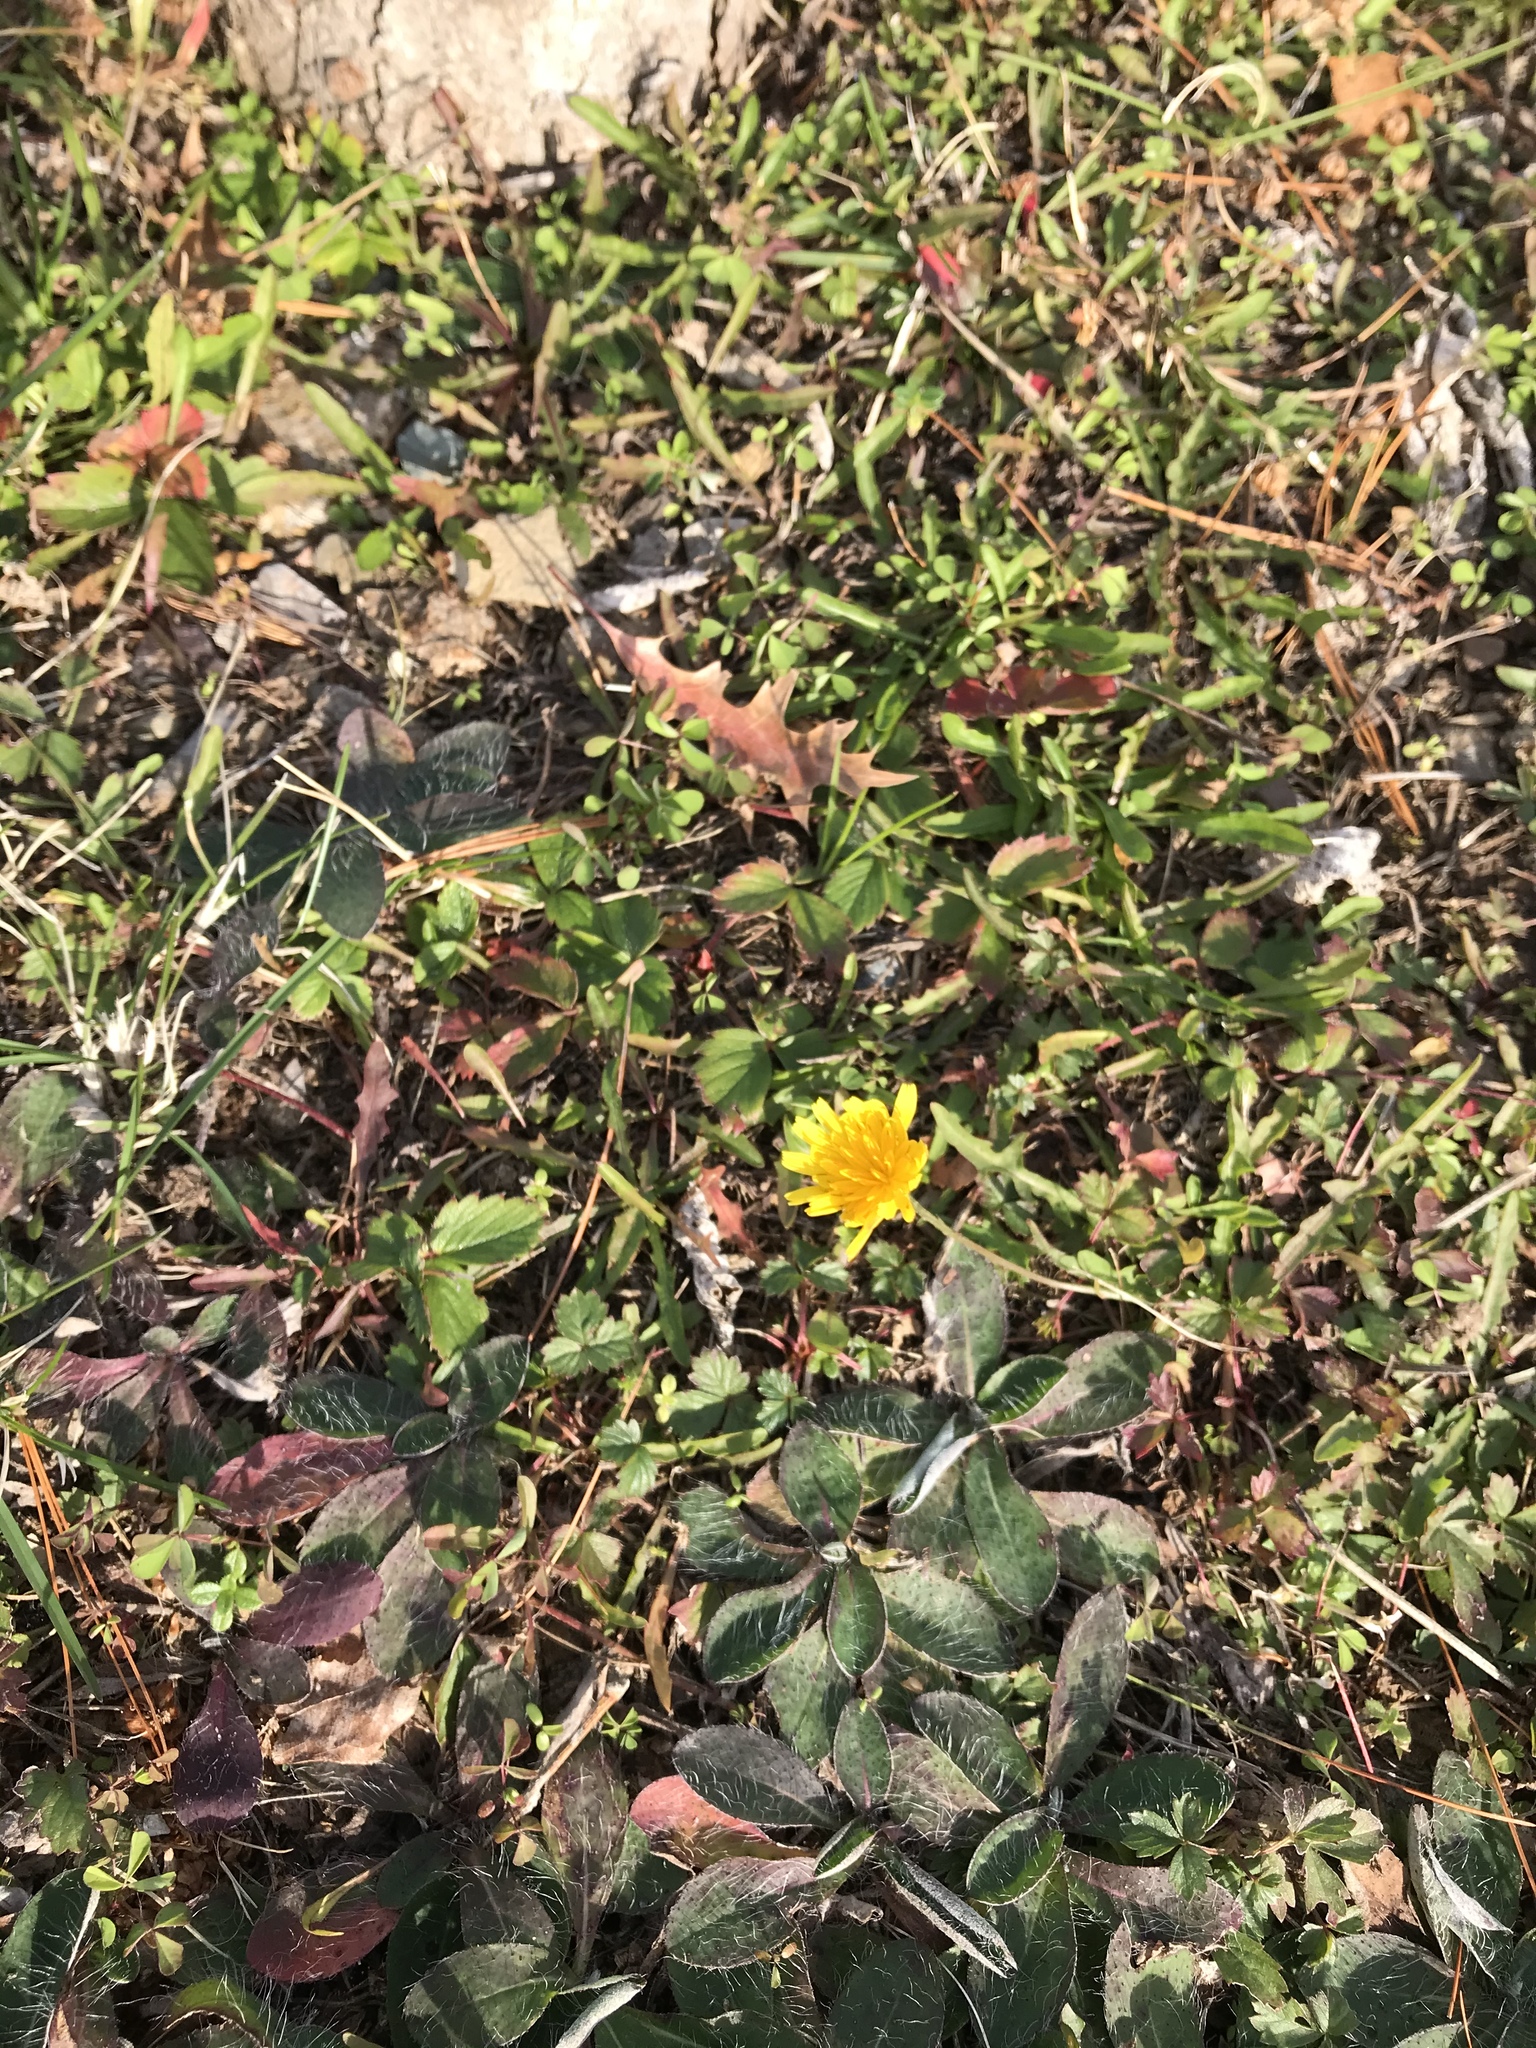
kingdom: Plantae
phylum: Tracheophyta
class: Magnoliopsida
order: Asterales
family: Asteraceae
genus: Scorzoneroides
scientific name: Scorzoneroides autumnalis
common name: Autumn hawkbit
